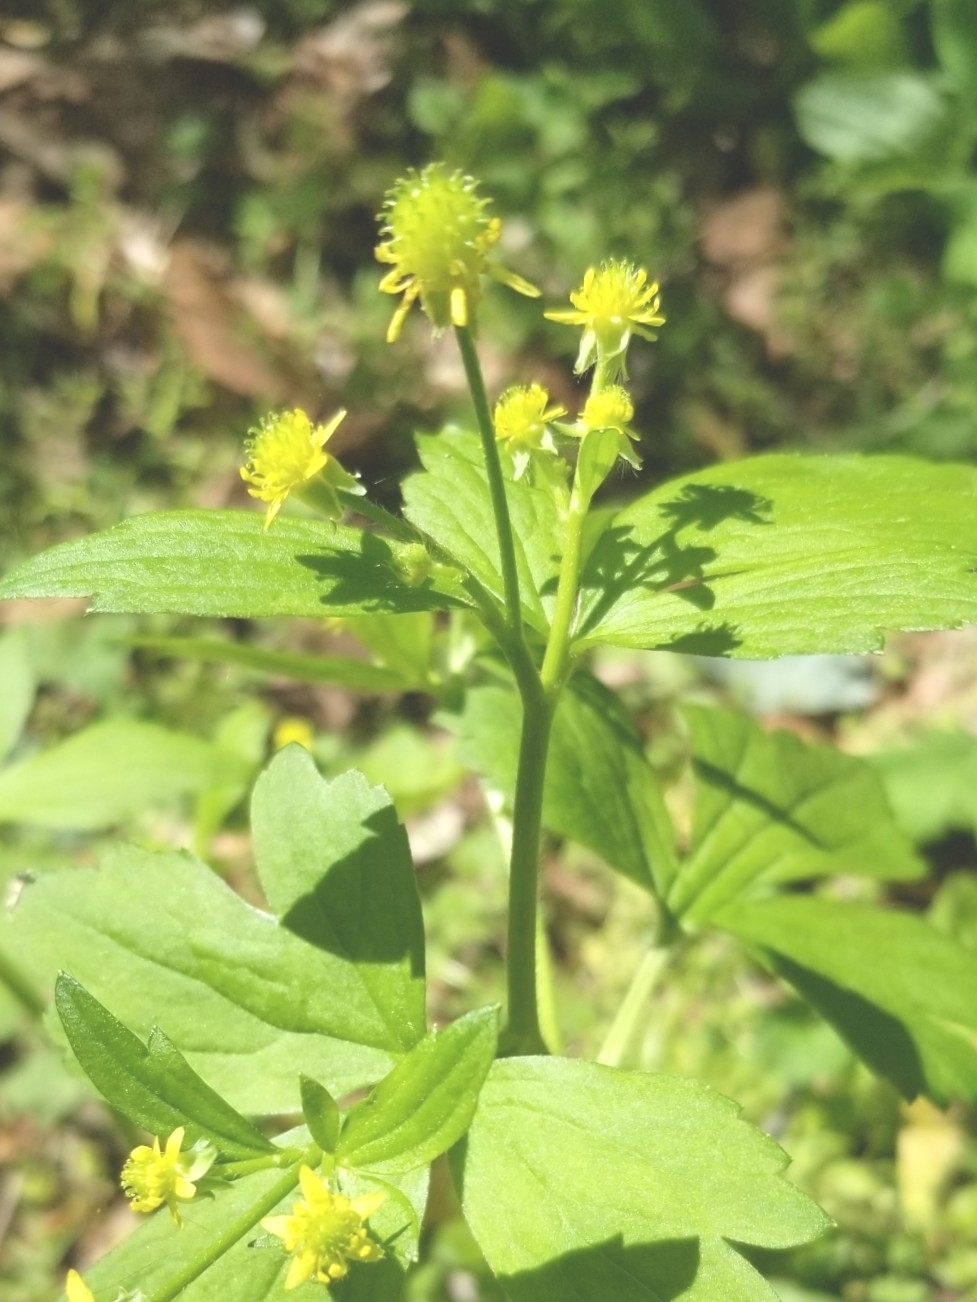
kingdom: Plantae
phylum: Tracheophyta
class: Magnoliopsida
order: Ranunculales
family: Ranunculaceae
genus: Ranunculus
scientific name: Ranunculus recurvatus
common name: Blisterwort
